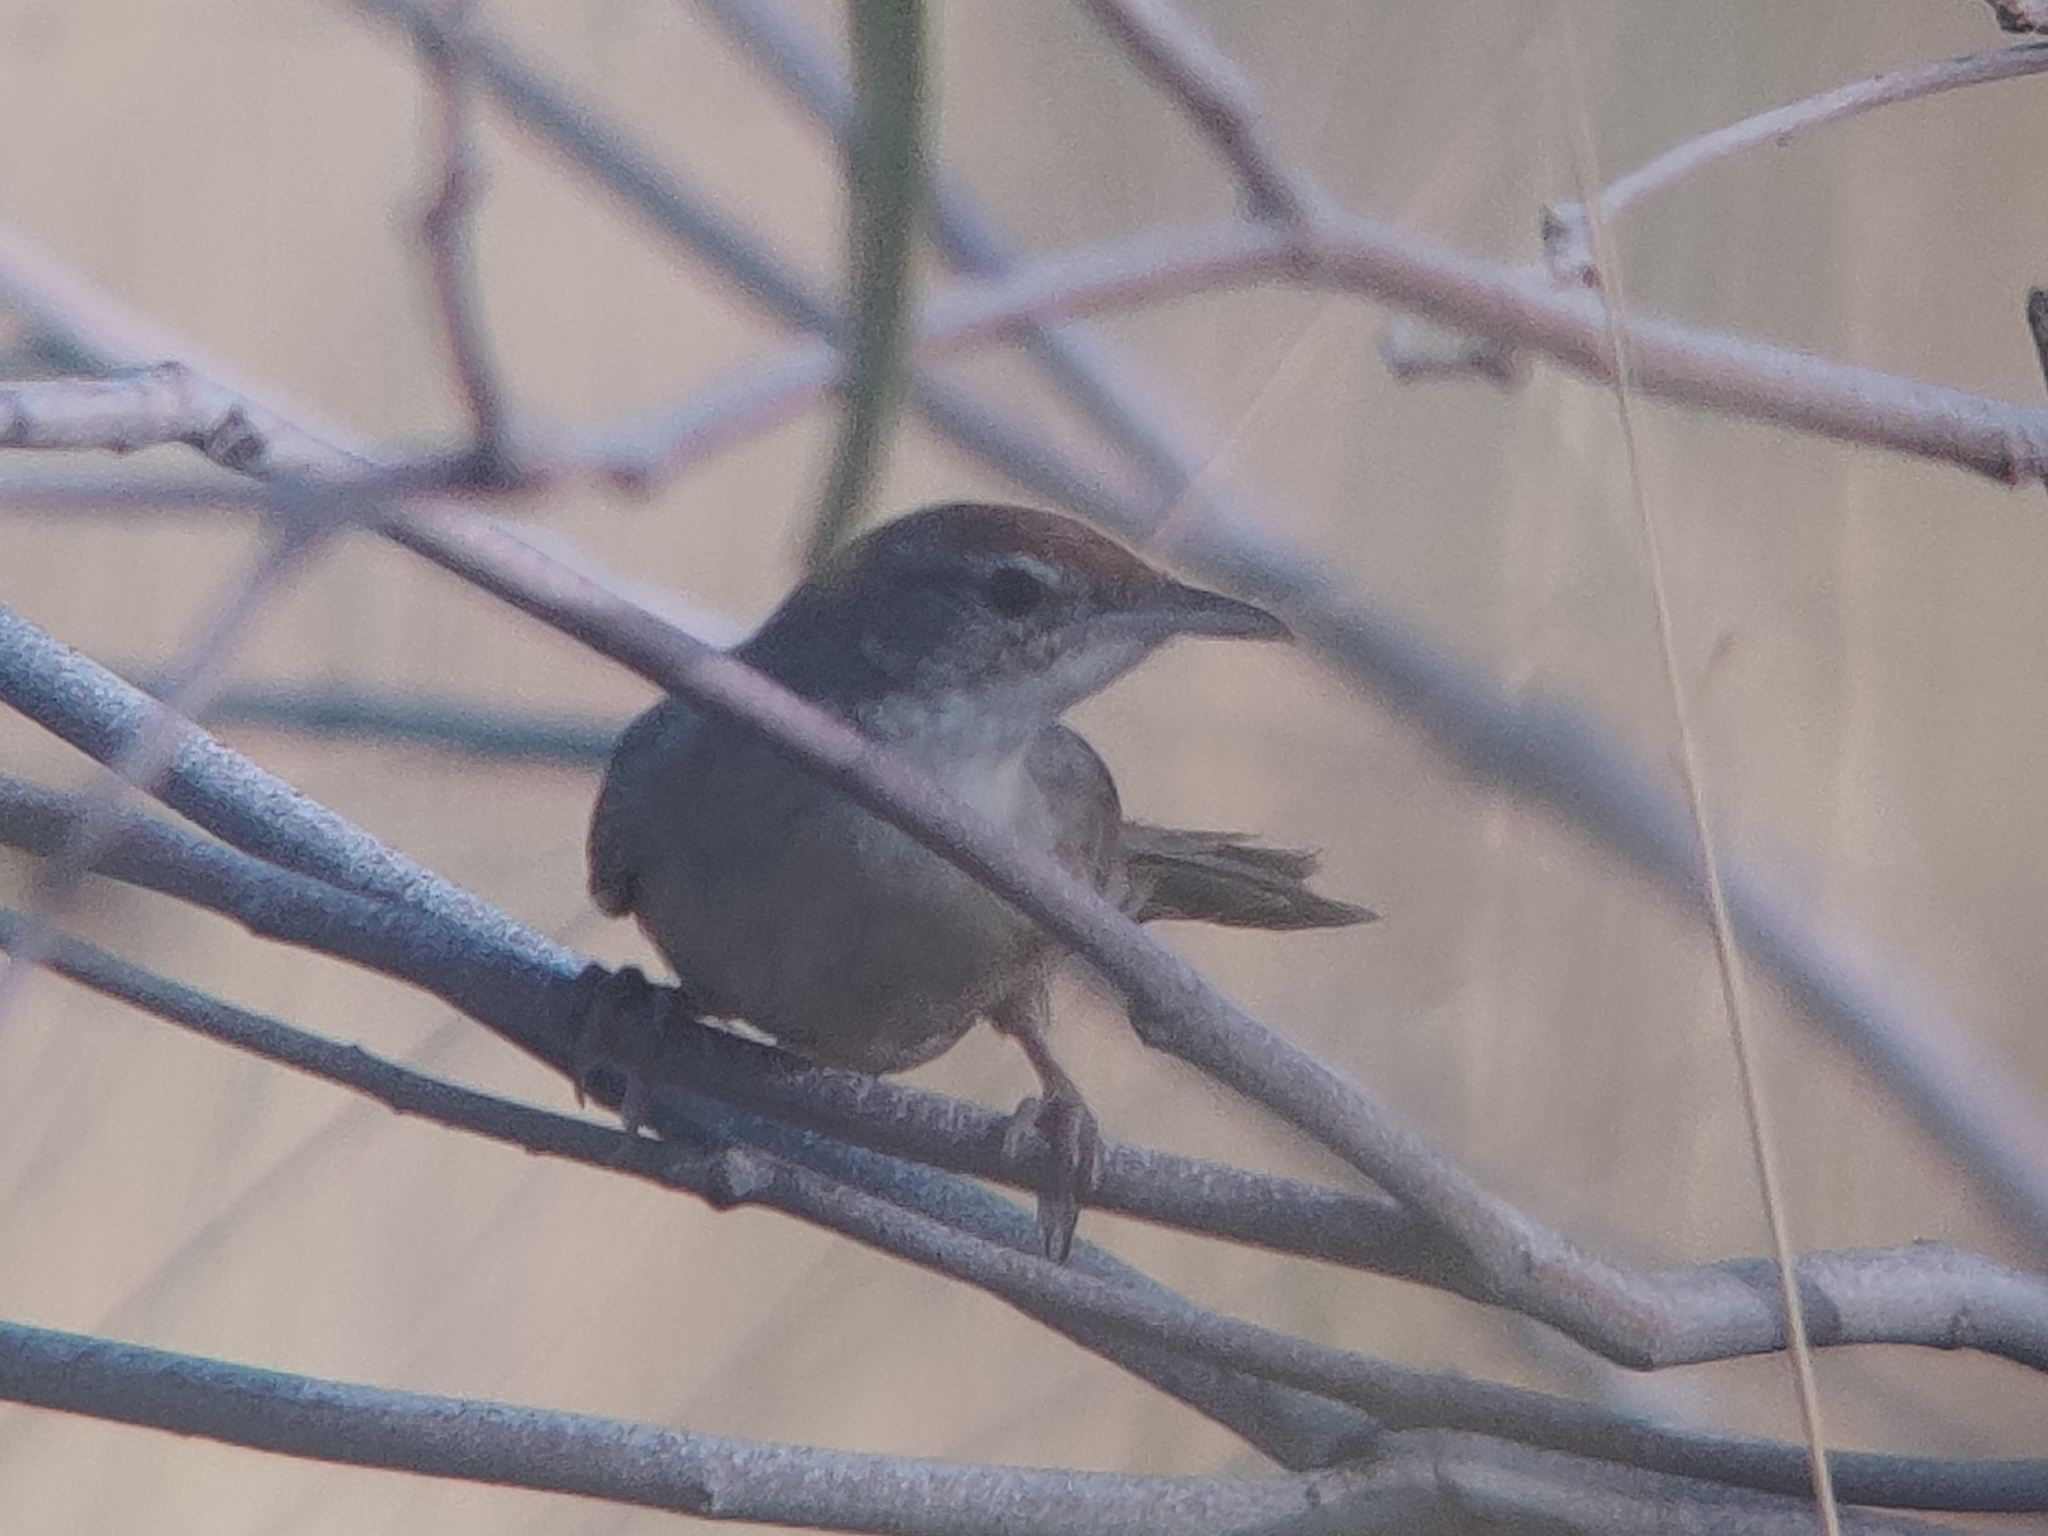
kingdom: Animalia
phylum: Chordata
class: Aves
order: Passeriformes
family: Locustellidae
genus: Megalurus
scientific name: Megalurus carteri
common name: Spinifexbird
